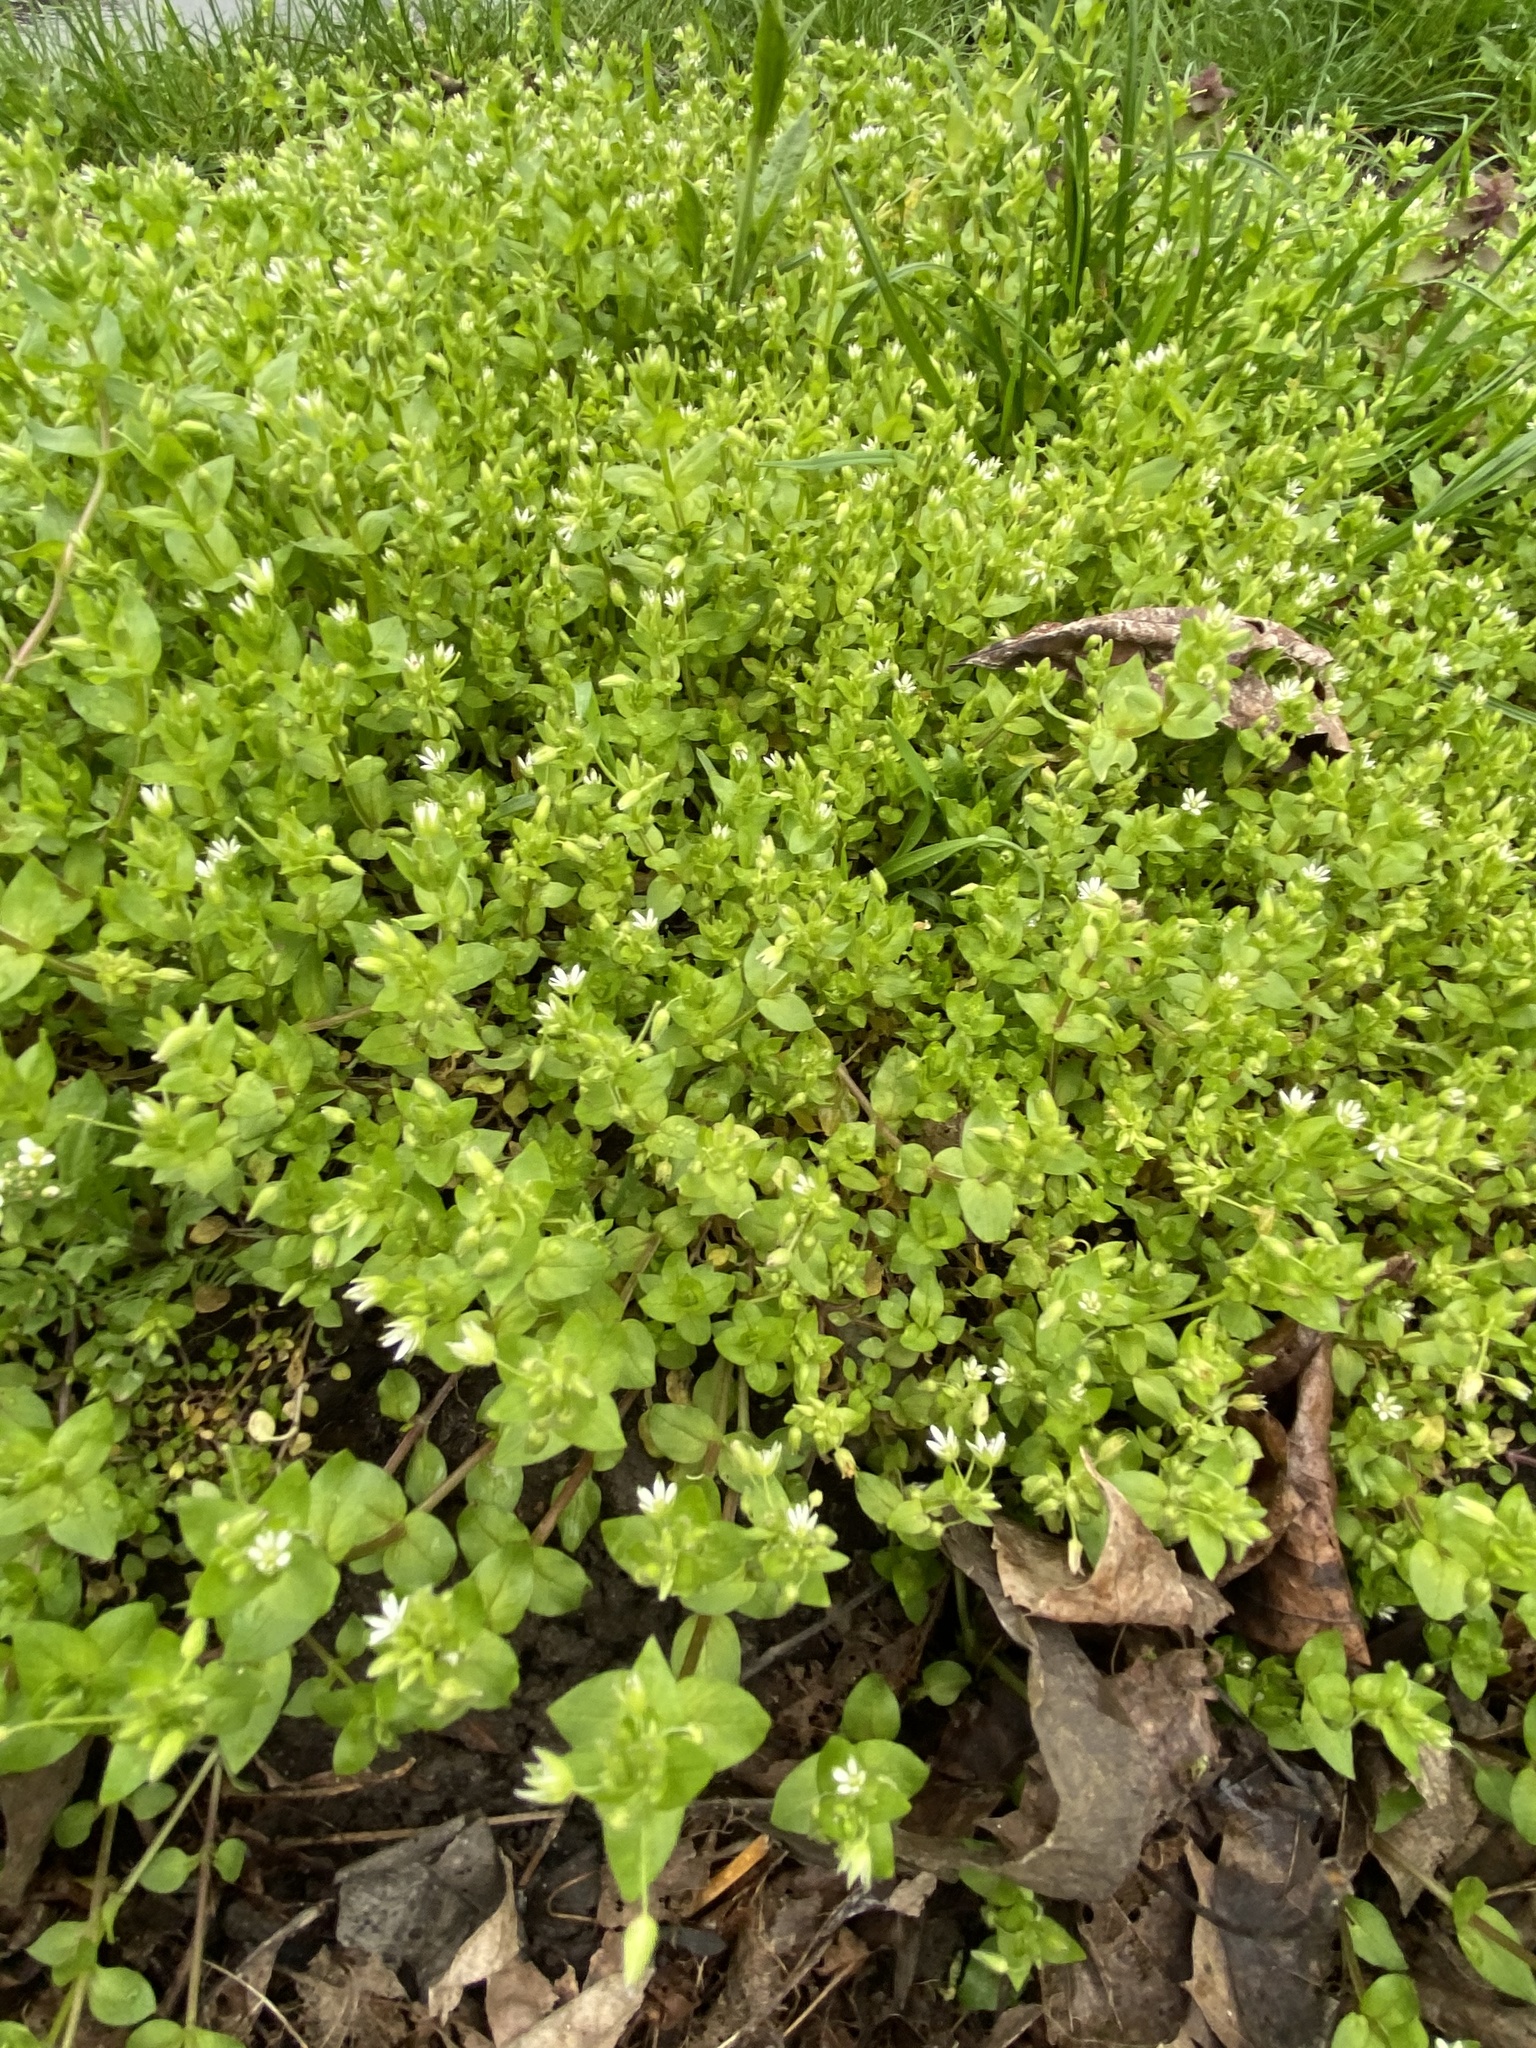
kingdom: Plantae
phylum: Tracheophyta
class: Magnoliopsida
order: Caryophyllales
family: Caryophyllaceae
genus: Stellaria
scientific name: Stellaria neglecta
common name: Greater chickweed
